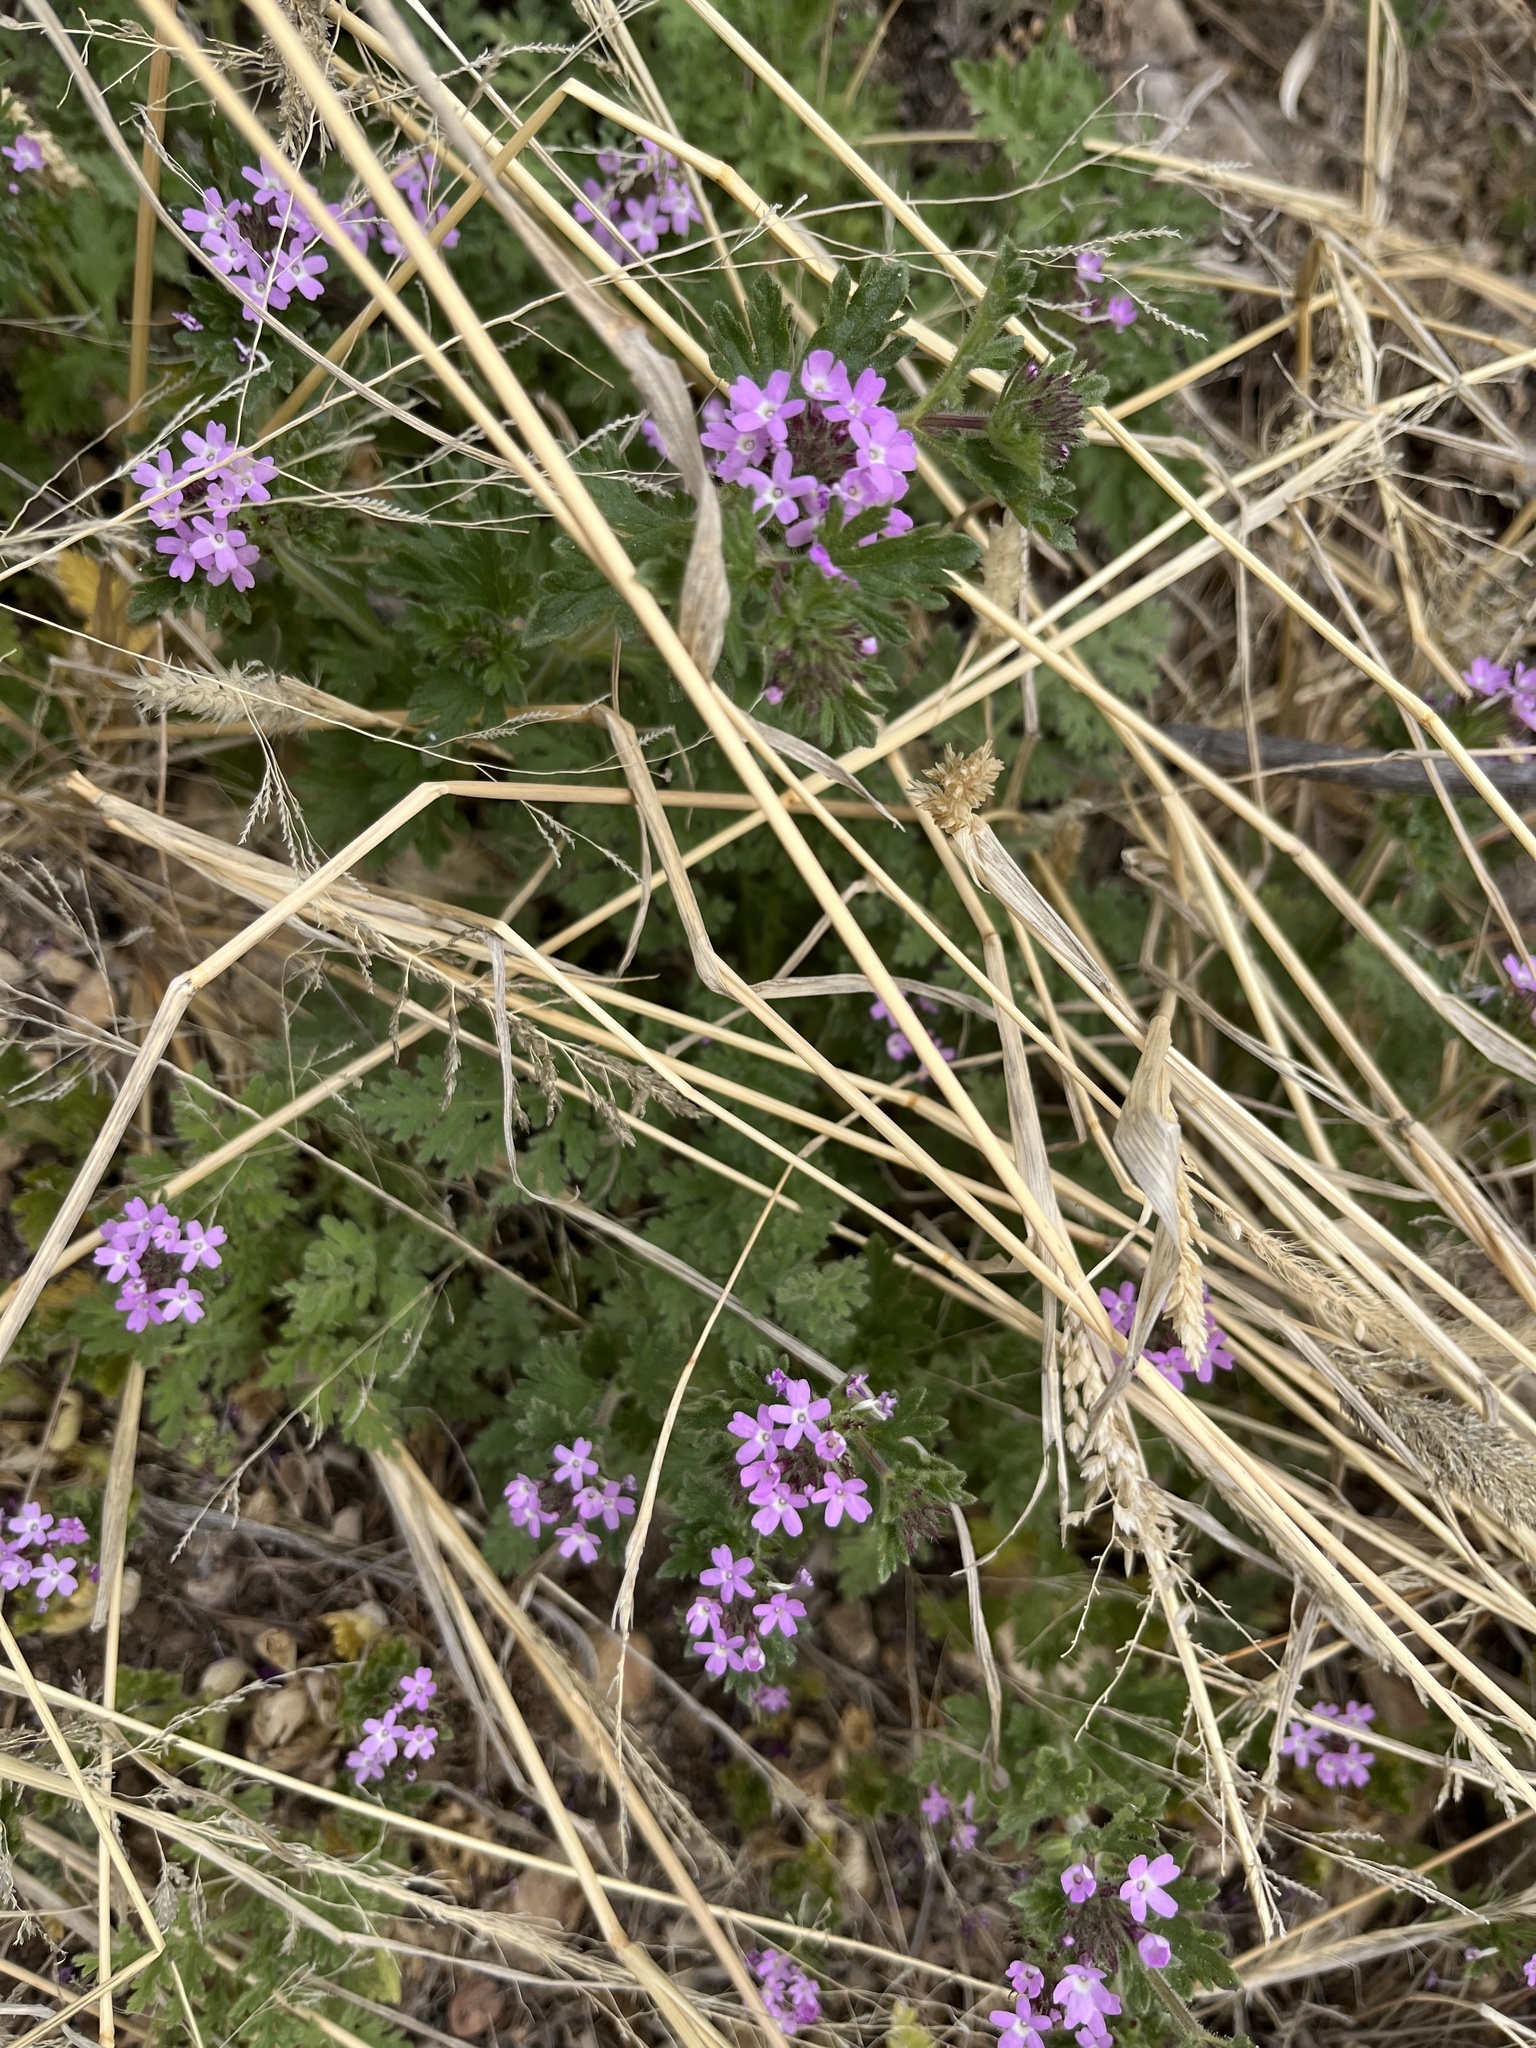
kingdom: Plantae
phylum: Tracheophyta
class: Magnoliopsida
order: Lamiales
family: Verbenaceae
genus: Verbena
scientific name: Verbena bipinnatifida
